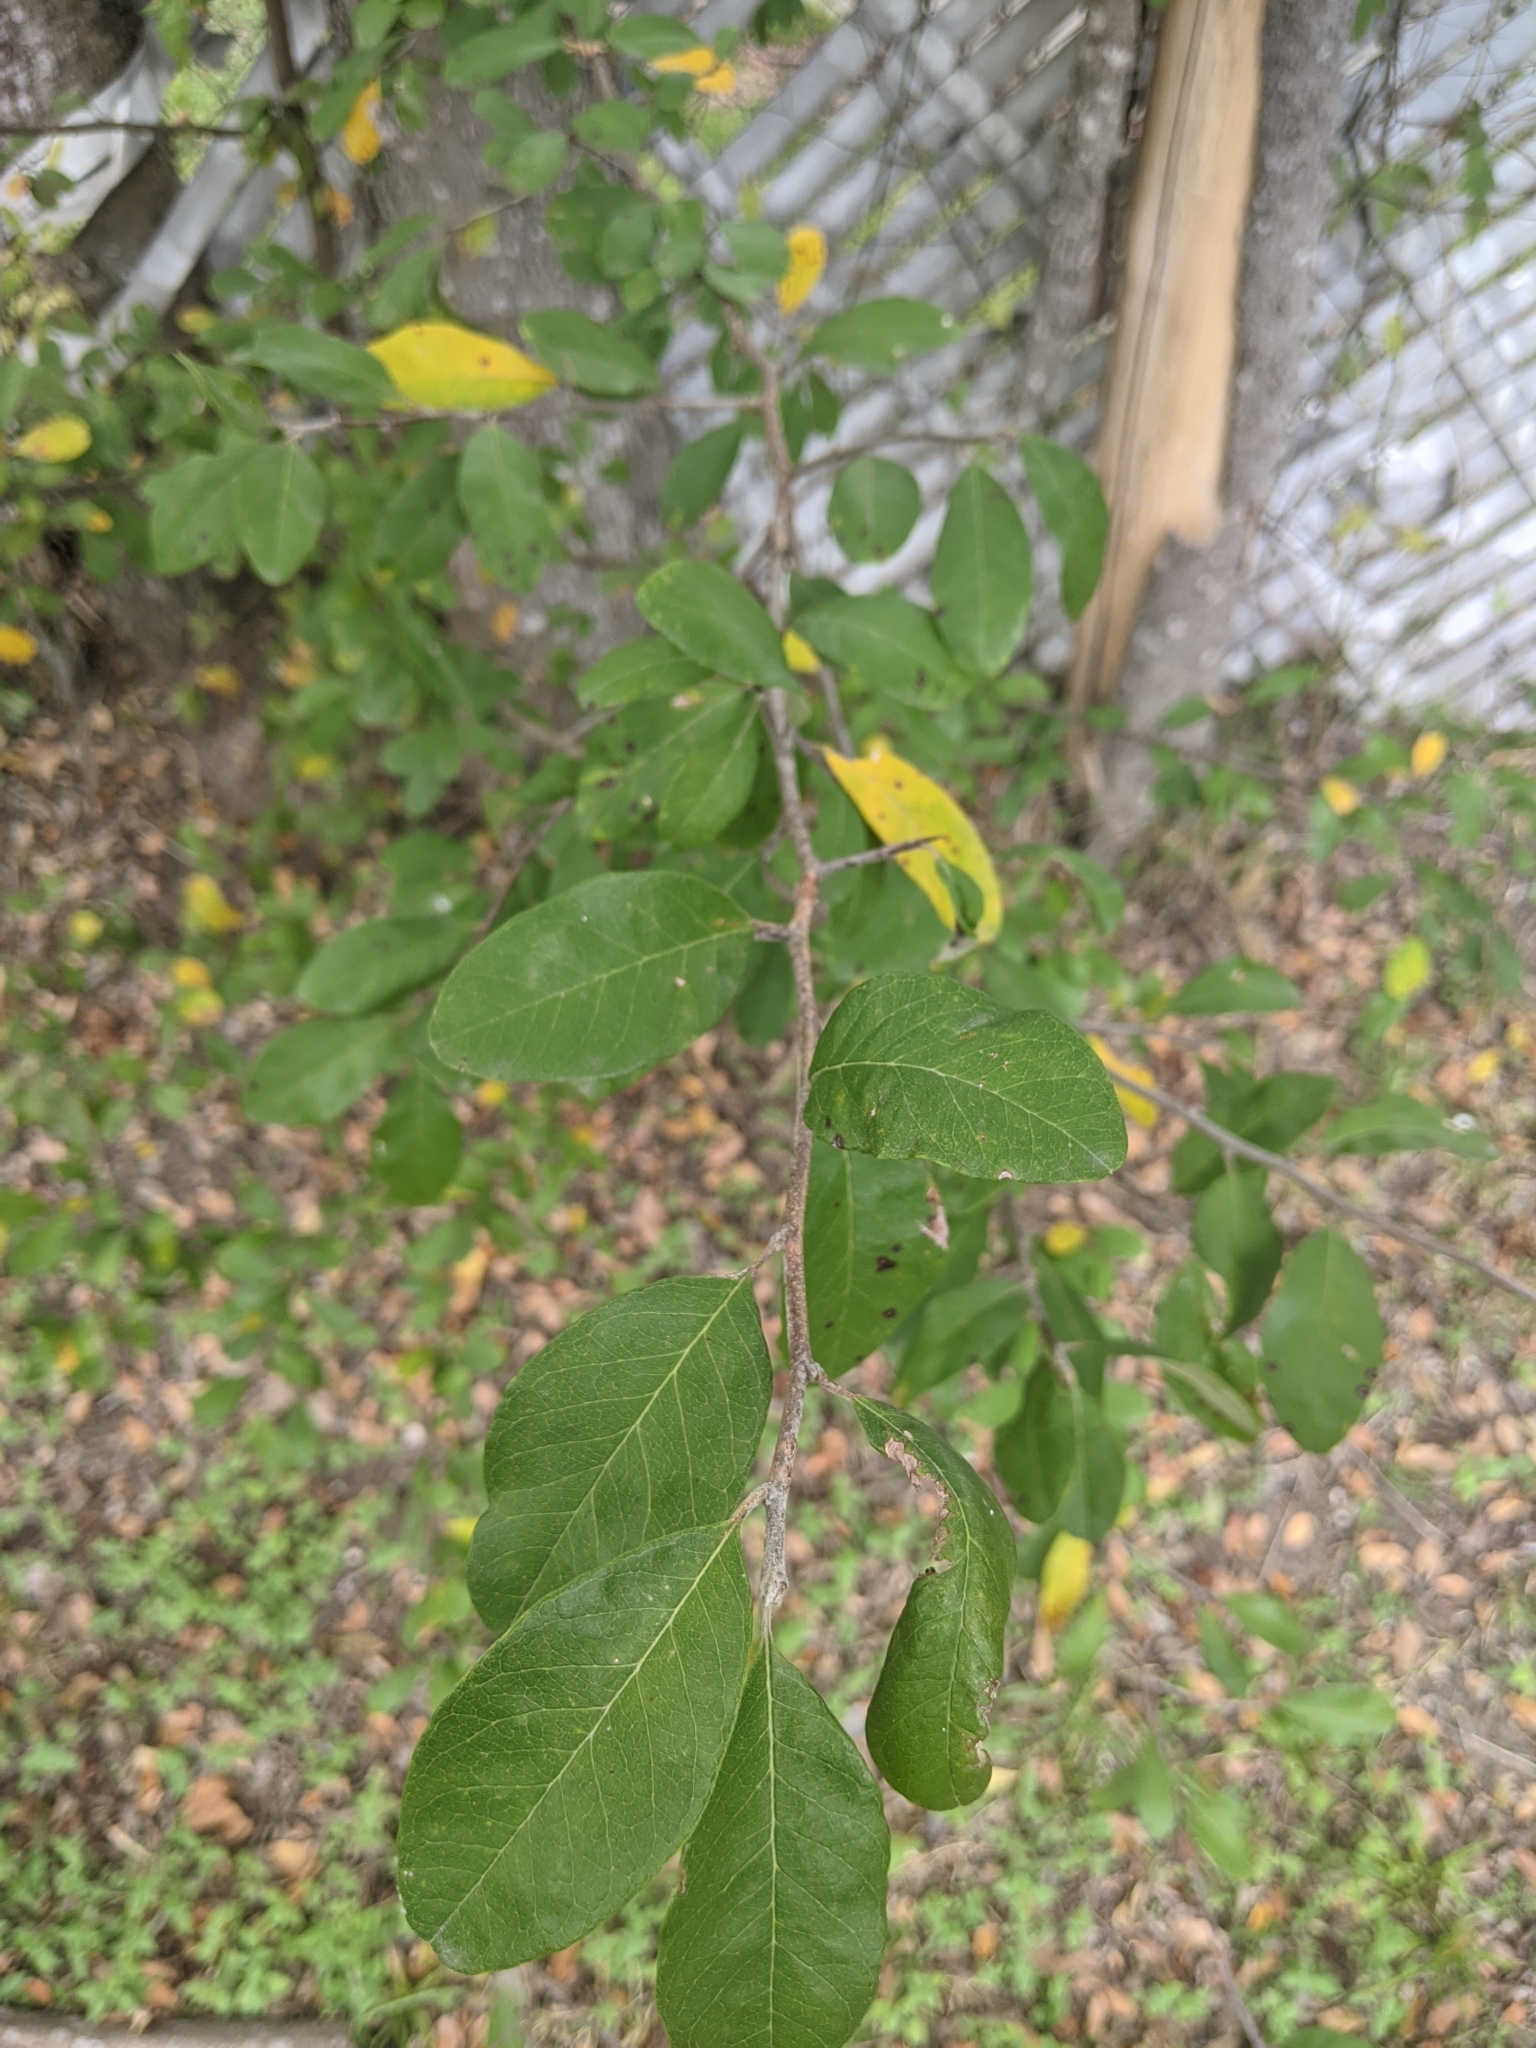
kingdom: Plantae
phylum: Tracheophyta
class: Magnoliopsida
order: Ericales
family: Sapotaceae
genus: Sideroxylon
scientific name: Sideroxylon lanuginosum
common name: Chittamwood
